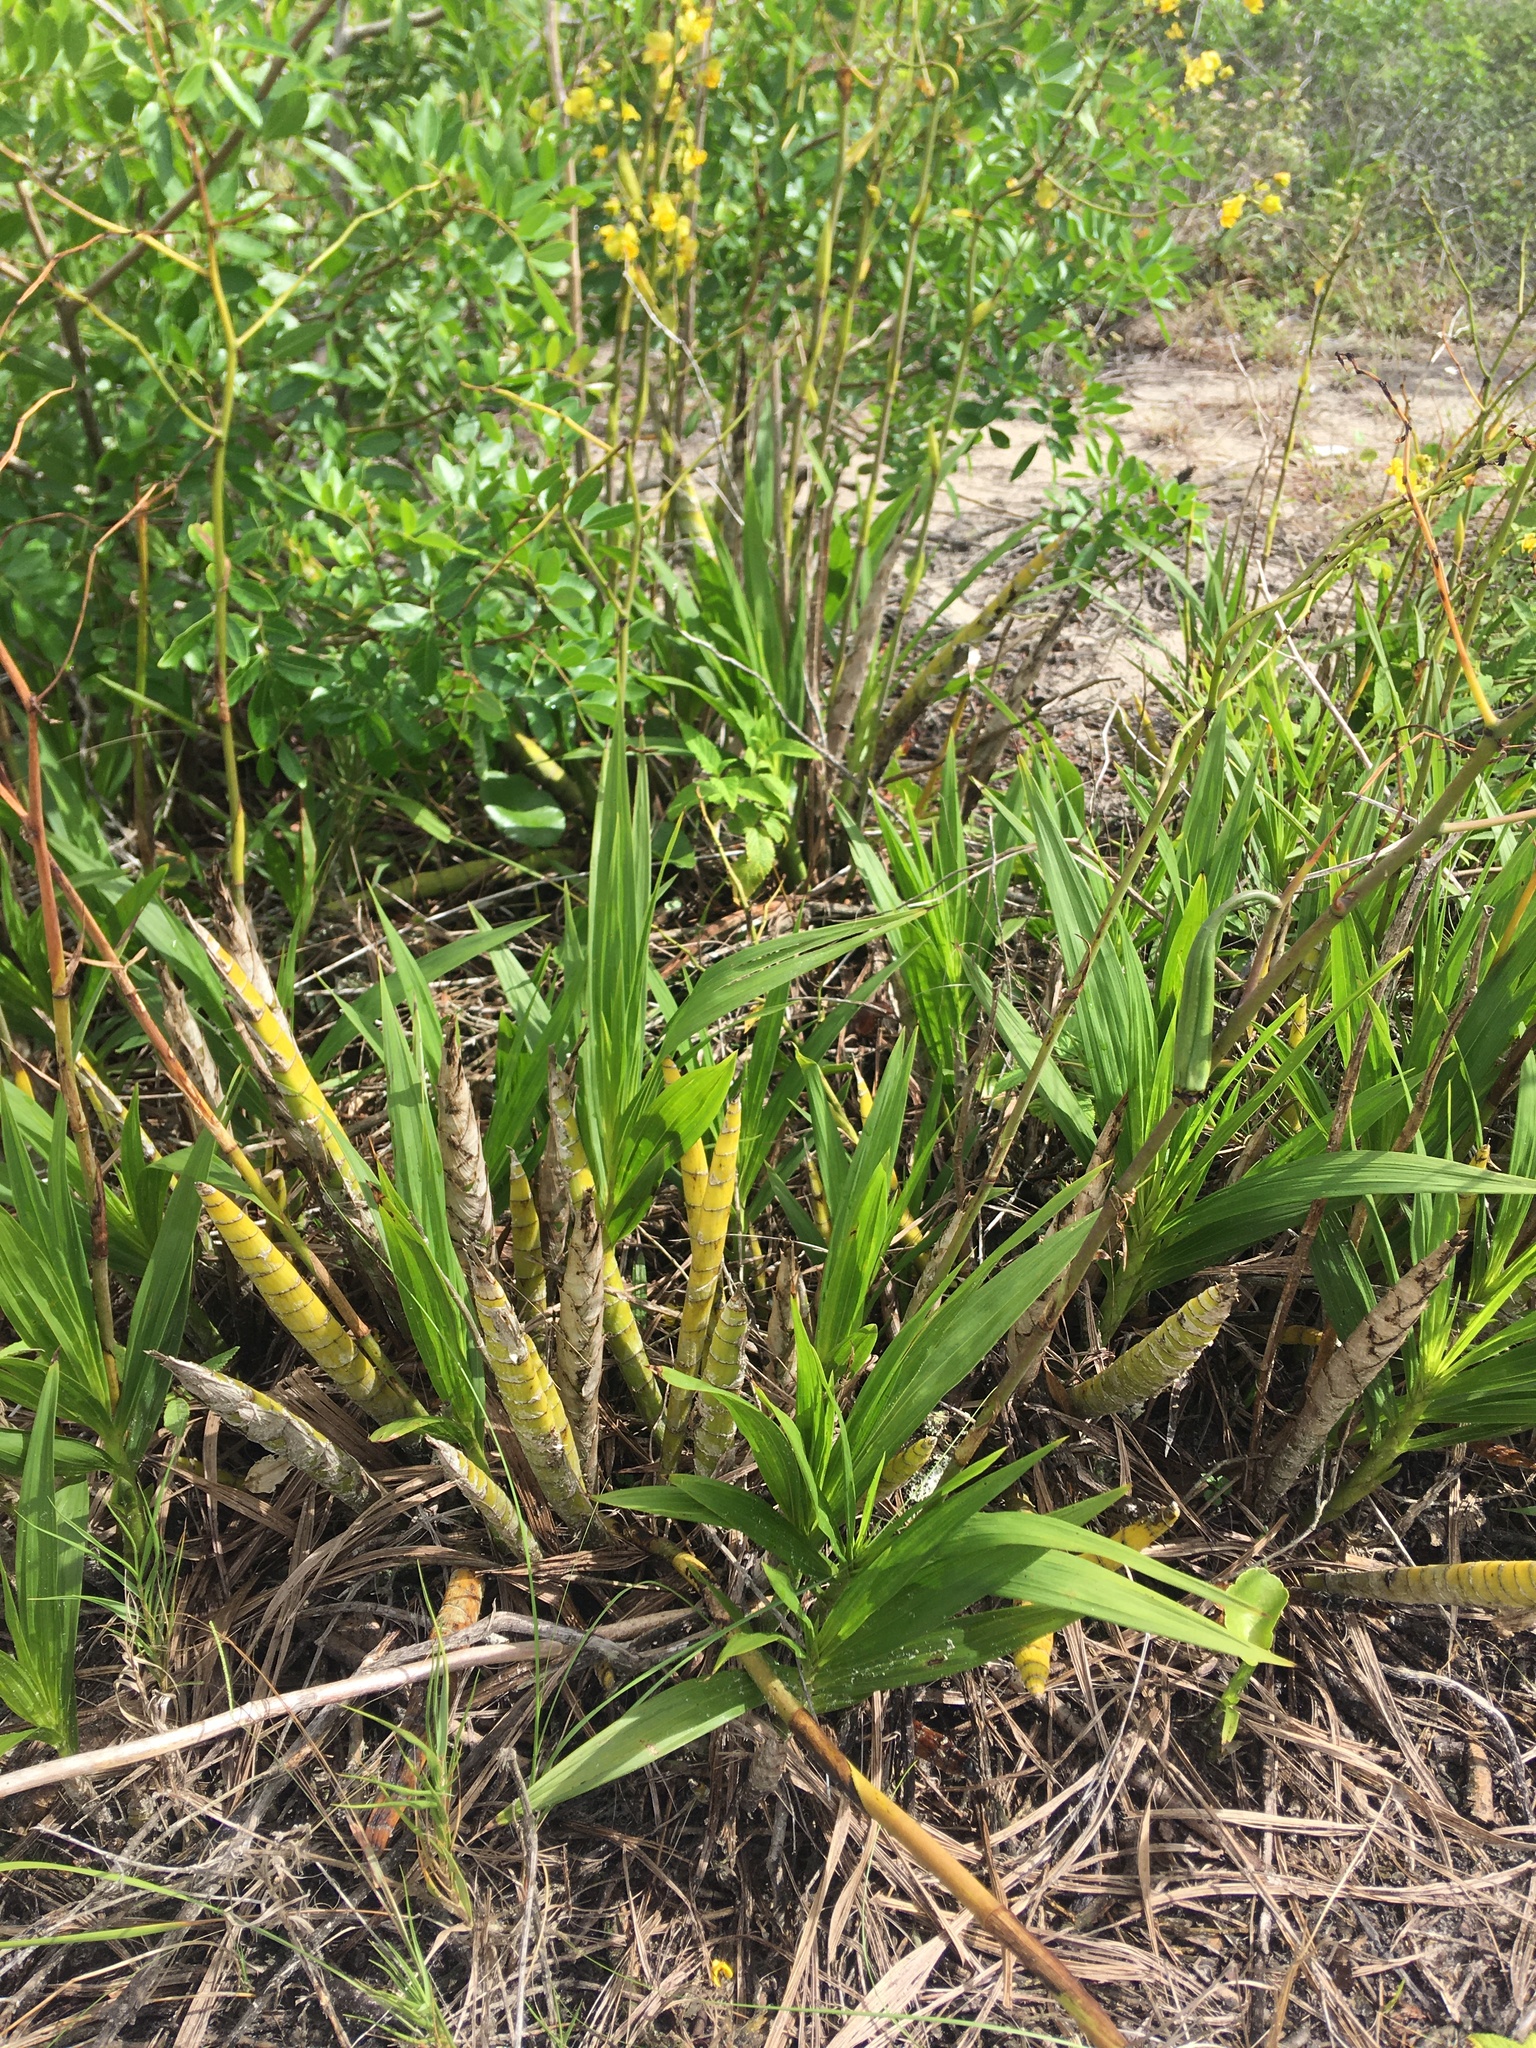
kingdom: Plantae
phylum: Tracheophyta
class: Liliopsida
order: Asparagales
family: Orchidaceae
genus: Cyrtopodium
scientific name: Cyrtopodium flavum
